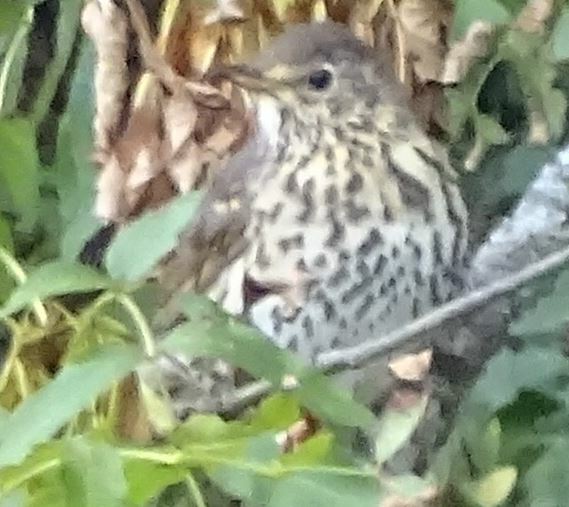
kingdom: Animalia
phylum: Chordata
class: Aves
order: Passeriformes
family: Turdidae
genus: Turdus
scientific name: Turdus philomelos
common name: Song thrush
